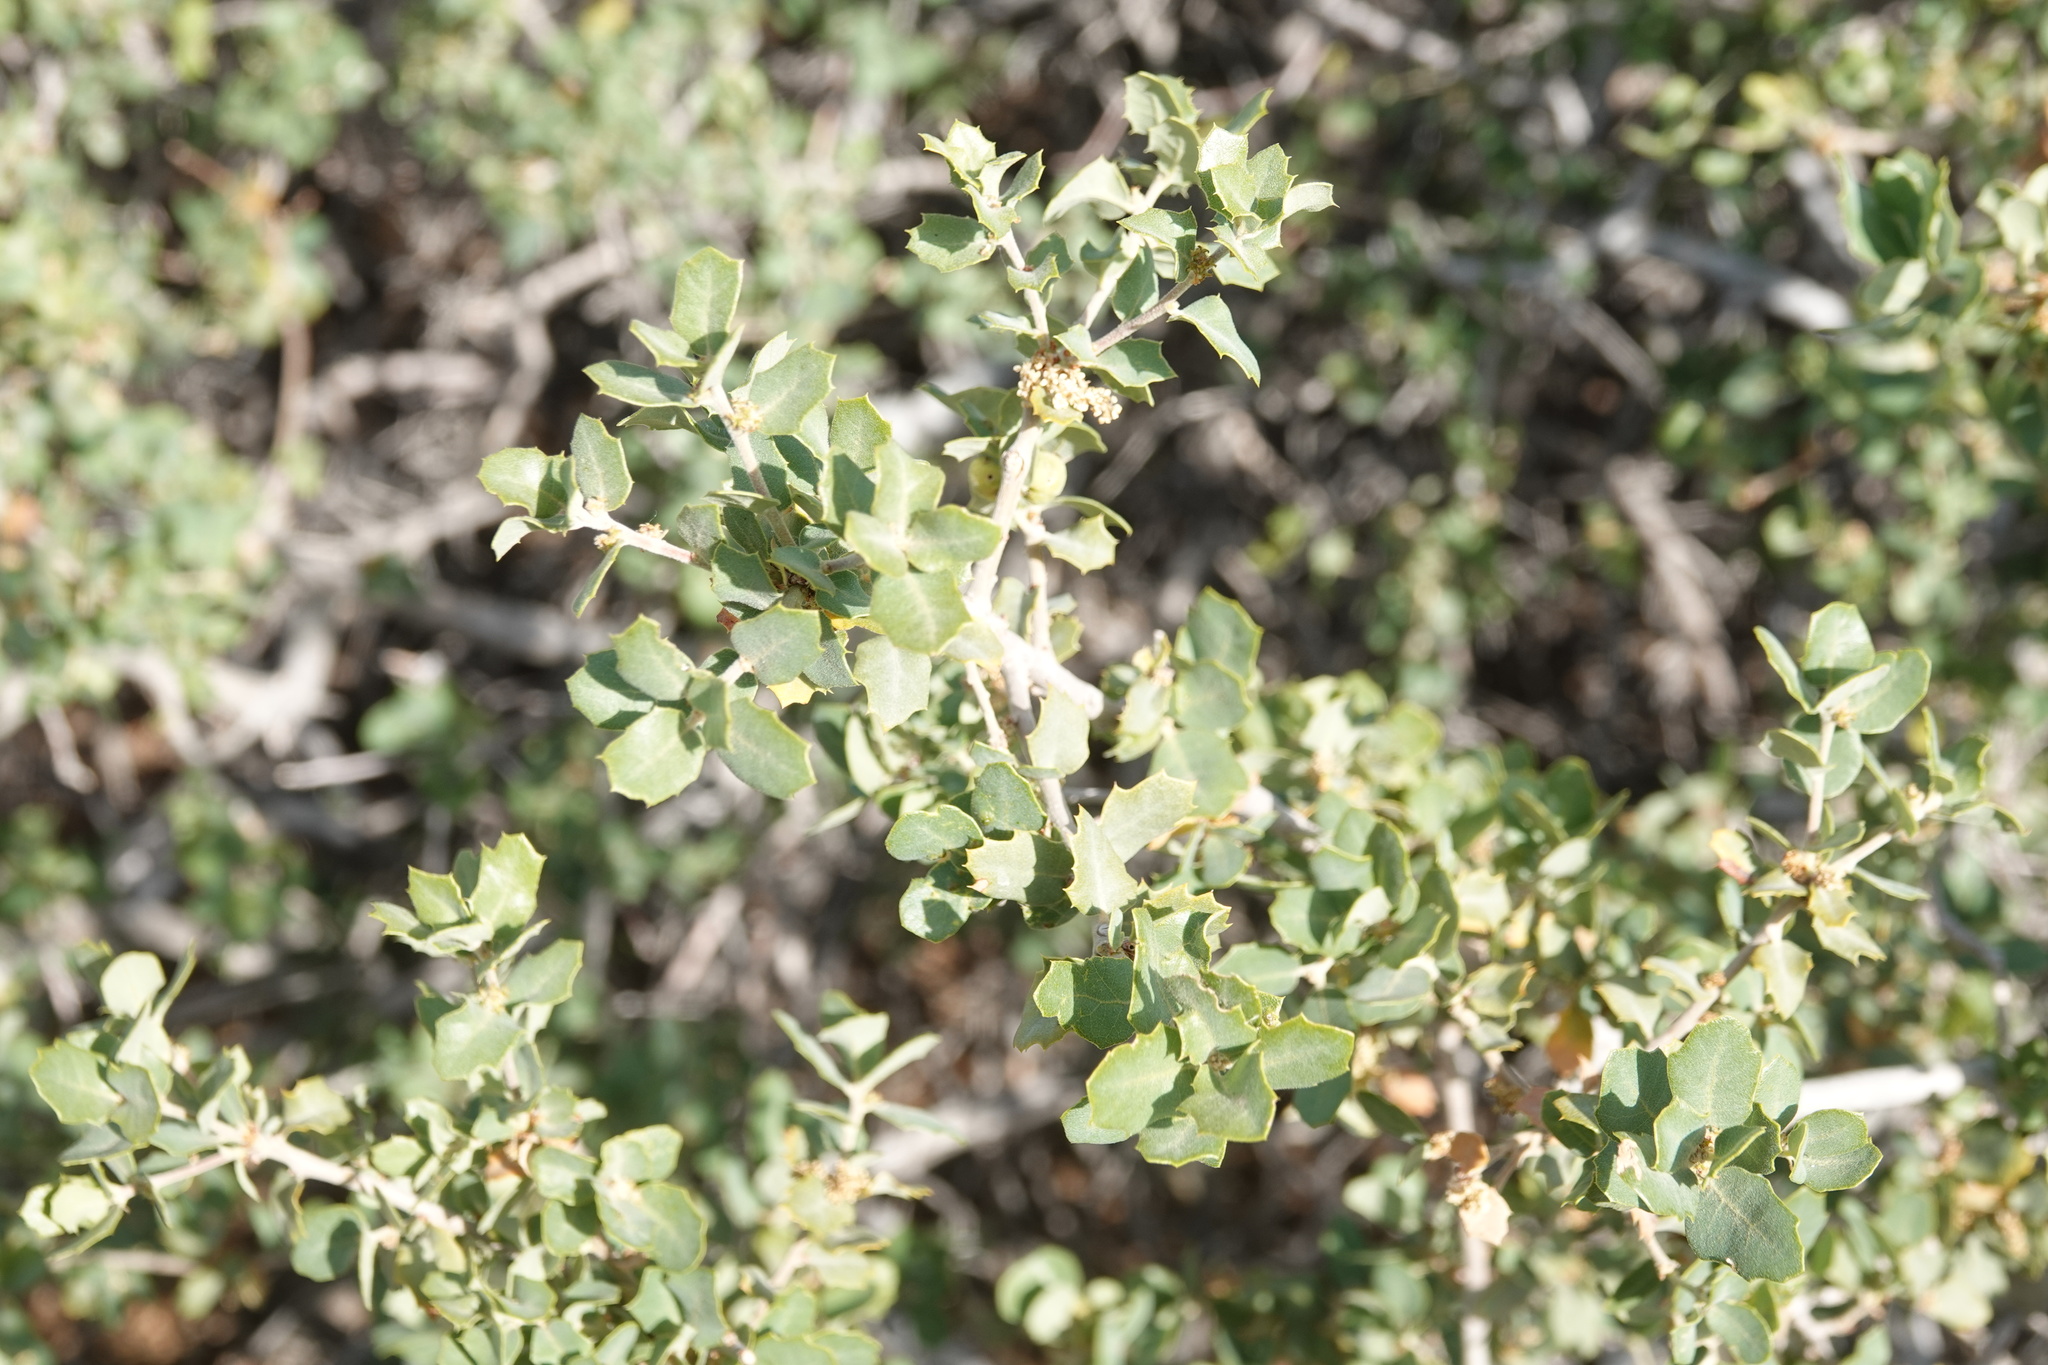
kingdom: Plantae
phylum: Tracheophyta
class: Magnoliopsida
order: Fagales
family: Fagaceae
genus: Quercus
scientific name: Quercus john-tuckeri
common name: Tucker's oak
